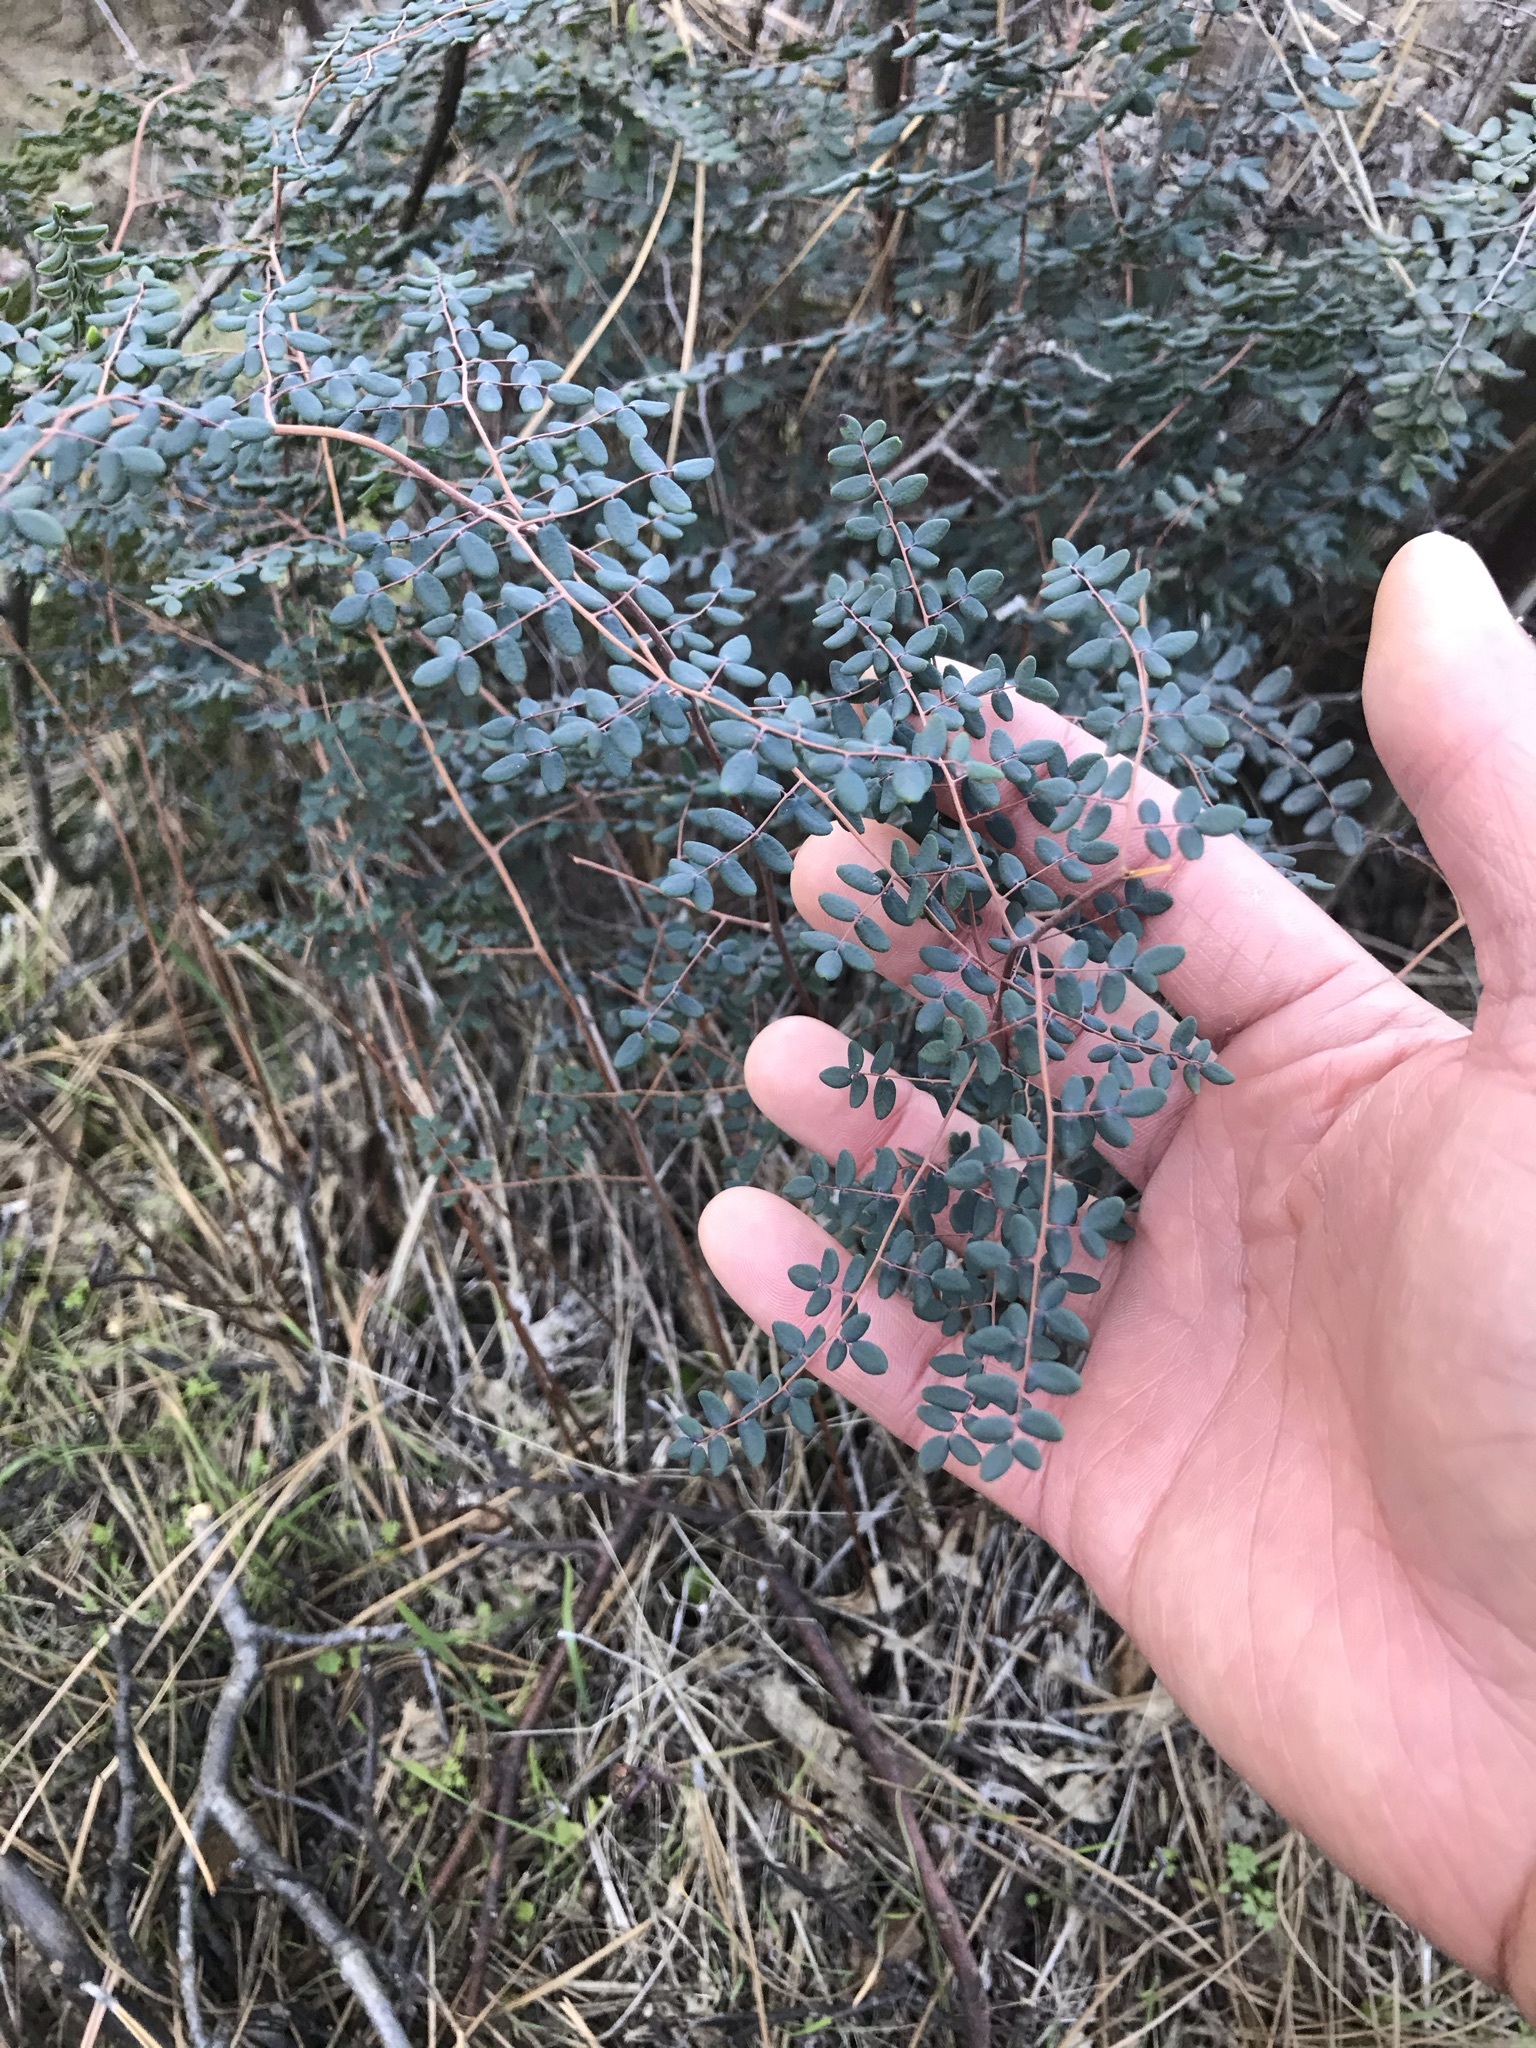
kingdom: Plantae
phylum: Tracheophyta
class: Polypodiopsida
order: Polypodiales
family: Pteridaceae
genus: Pellaea
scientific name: Pellaea andromedifolia
